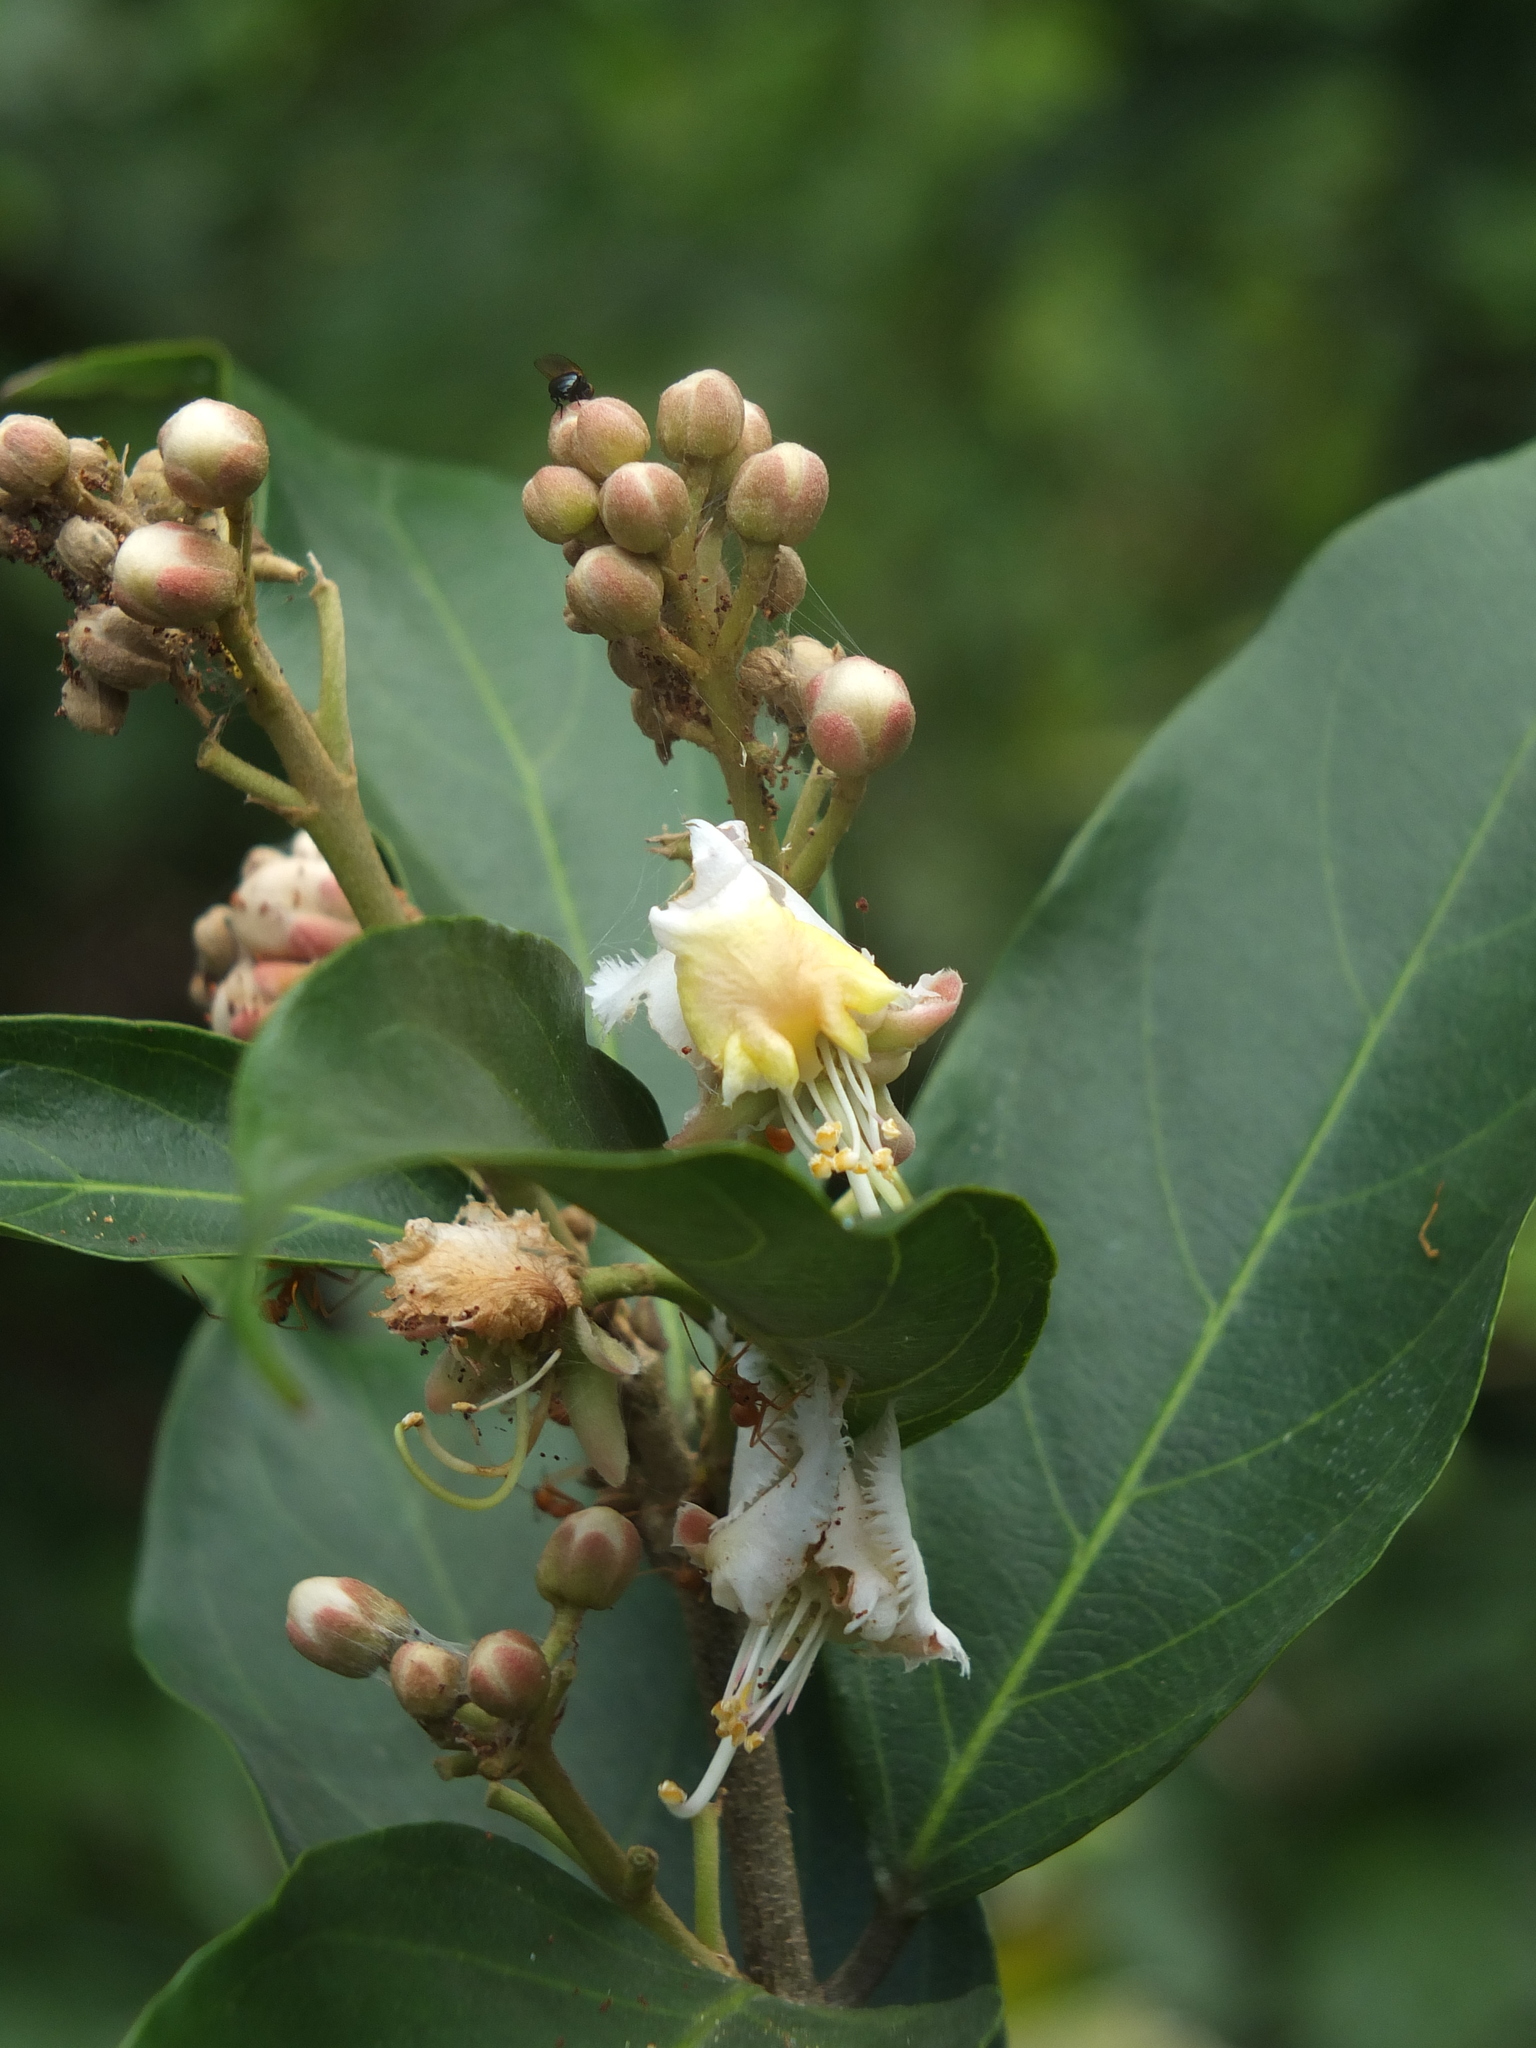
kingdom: Plantae
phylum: Tracheophyta
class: Magnoliopsida
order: Malpighiales
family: Malpighiaceae
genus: Hiptage
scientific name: Hiptage benghalensis
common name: Hiptage
